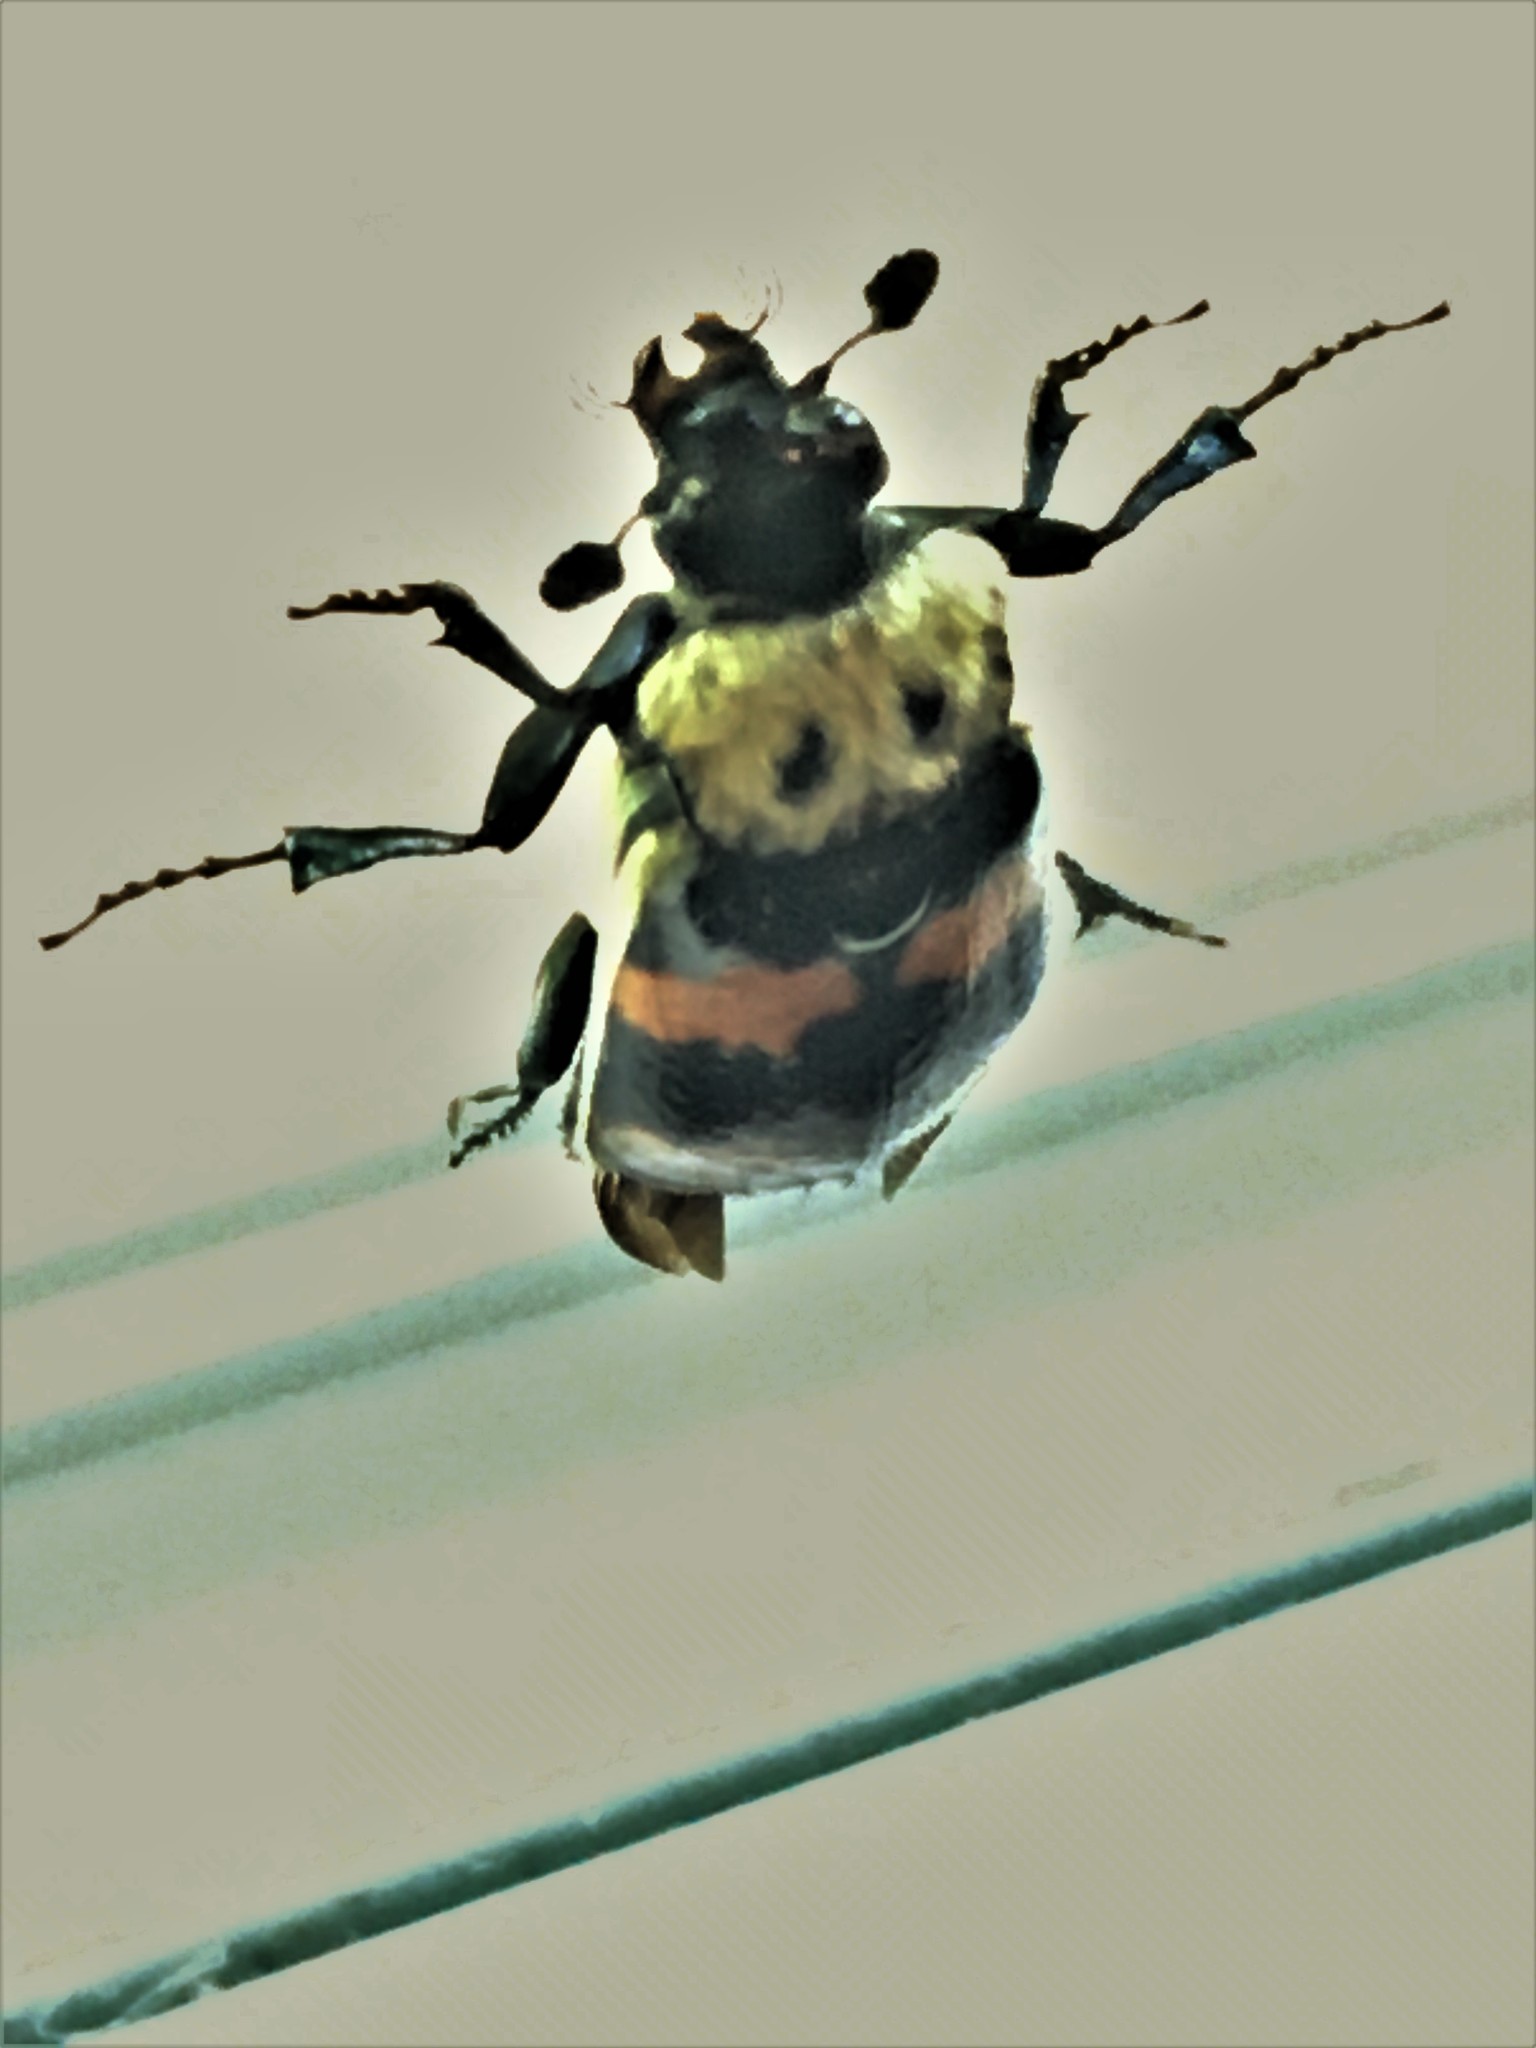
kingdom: Animalia
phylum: Arthropoda
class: Insecta
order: Coleoptera
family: Staphylinidae
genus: Nicrophorus
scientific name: Nicrophorus tomentosus
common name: Tomentose burying beetle
